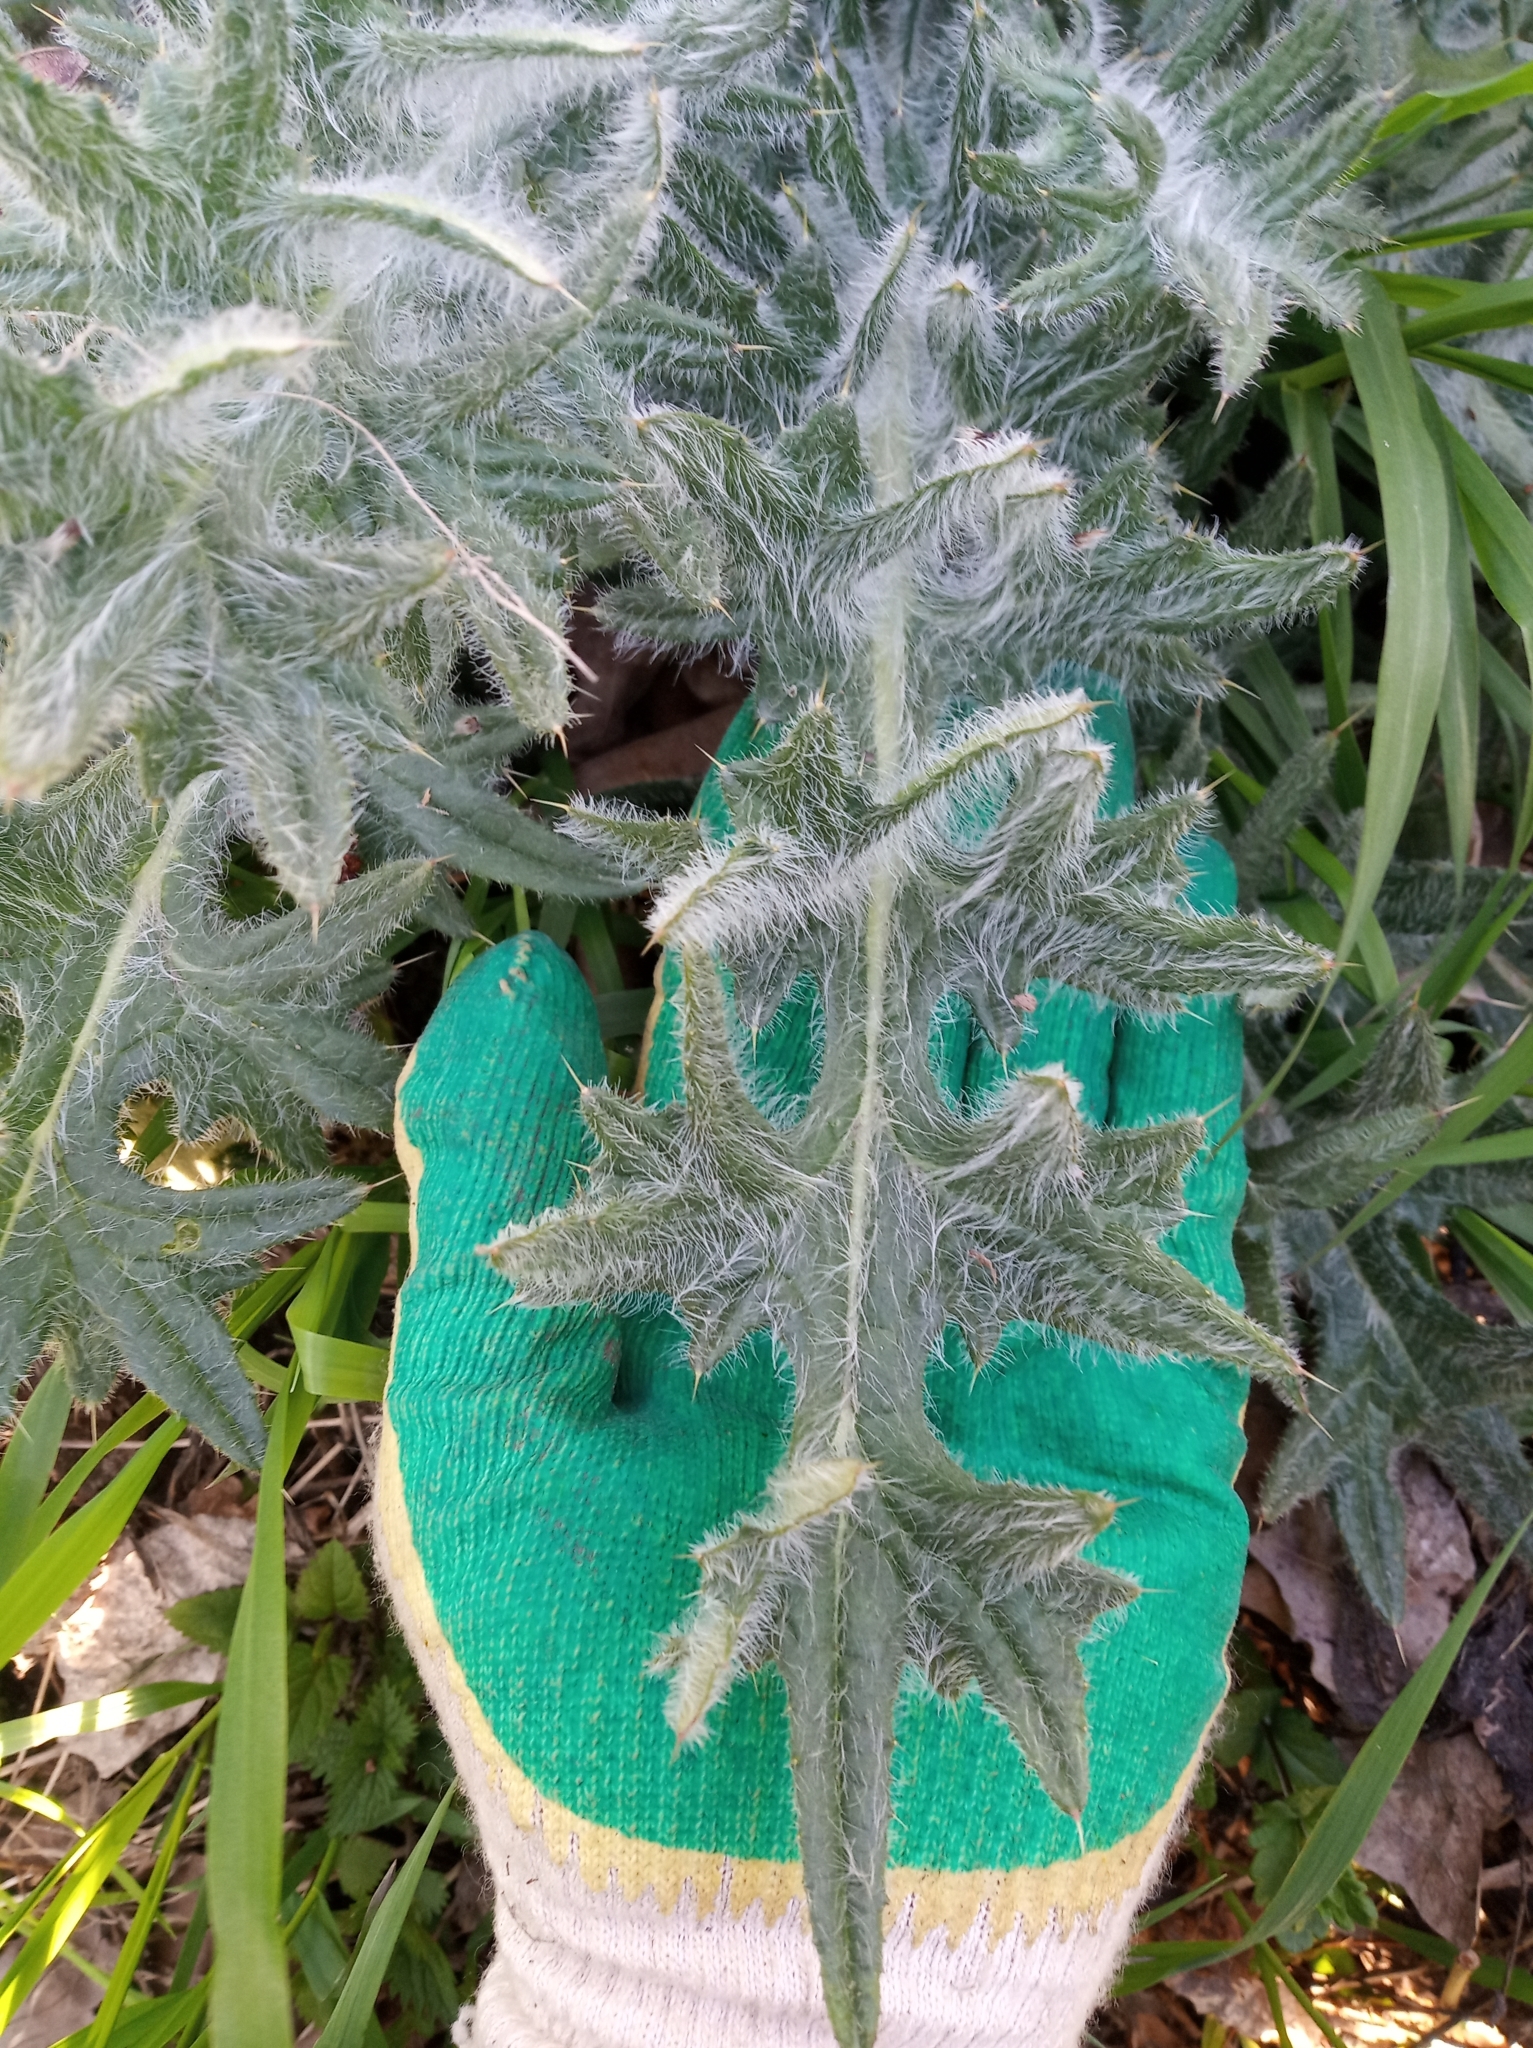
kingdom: Plantae
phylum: Tracheophyta
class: Magnoliopsida
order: Asterales
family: Asteraceae
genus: Cirsium
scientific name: Cirsium vulgare
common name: Bull thistle
